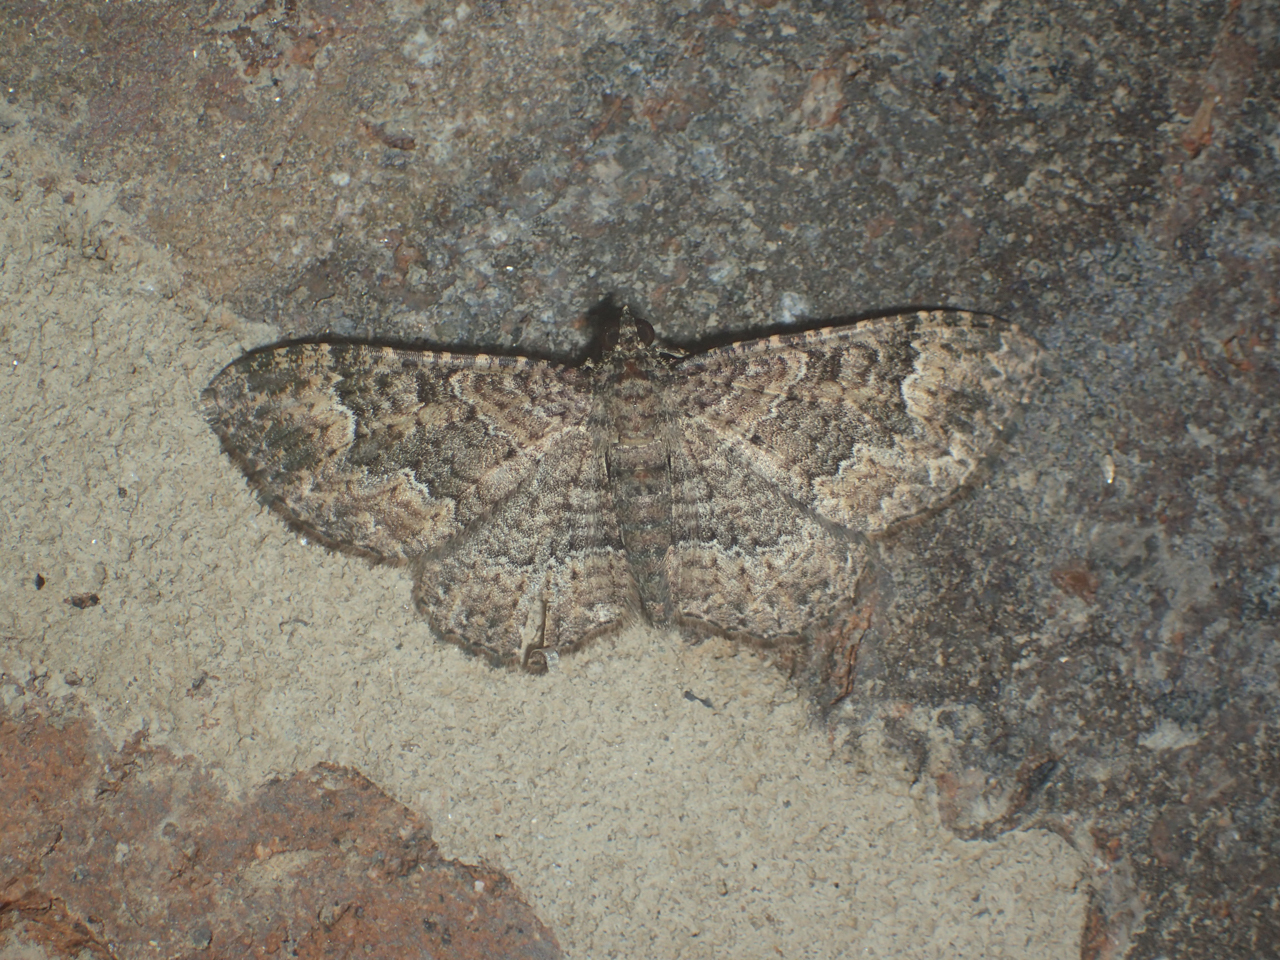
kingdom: Animalia
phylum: Arthropoda
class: Insecta
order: Lepidoptera
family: Geometridae
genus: Disclisioprocta
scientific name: Disclisioprocta stellata
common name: Somber carpet
